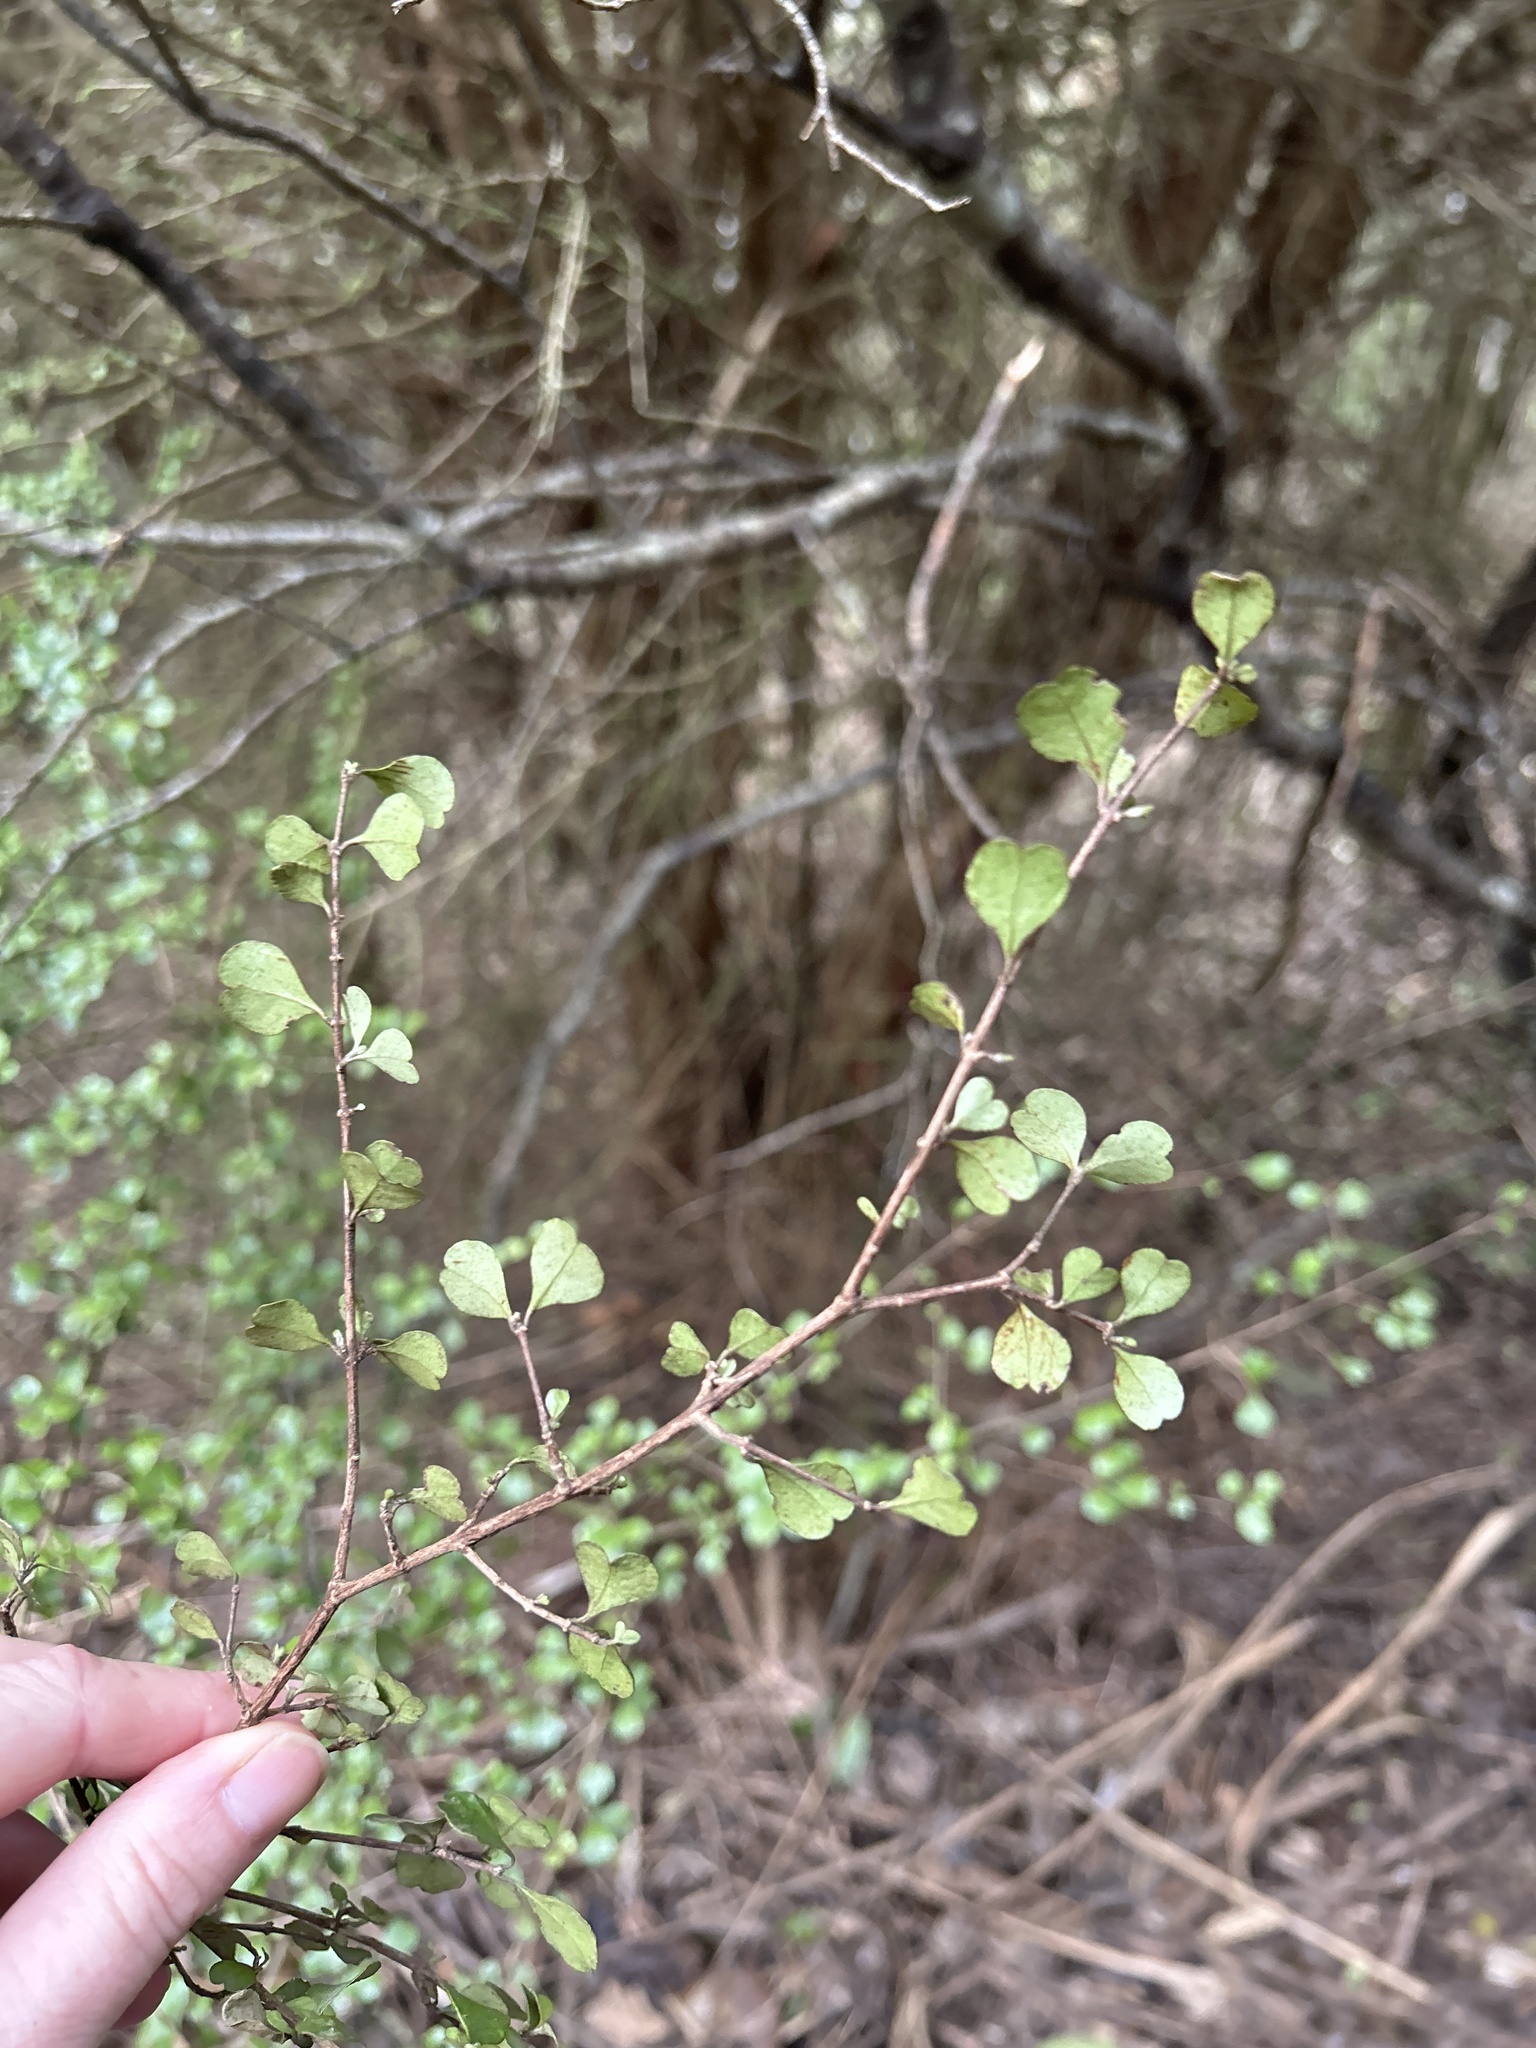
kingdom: Plantae
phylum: Tracheophyta
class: Magnoliopsida
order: Myrtales
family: Myrtaceae
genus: Lophomyrtus
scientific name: Lophomyrtus obcordata
